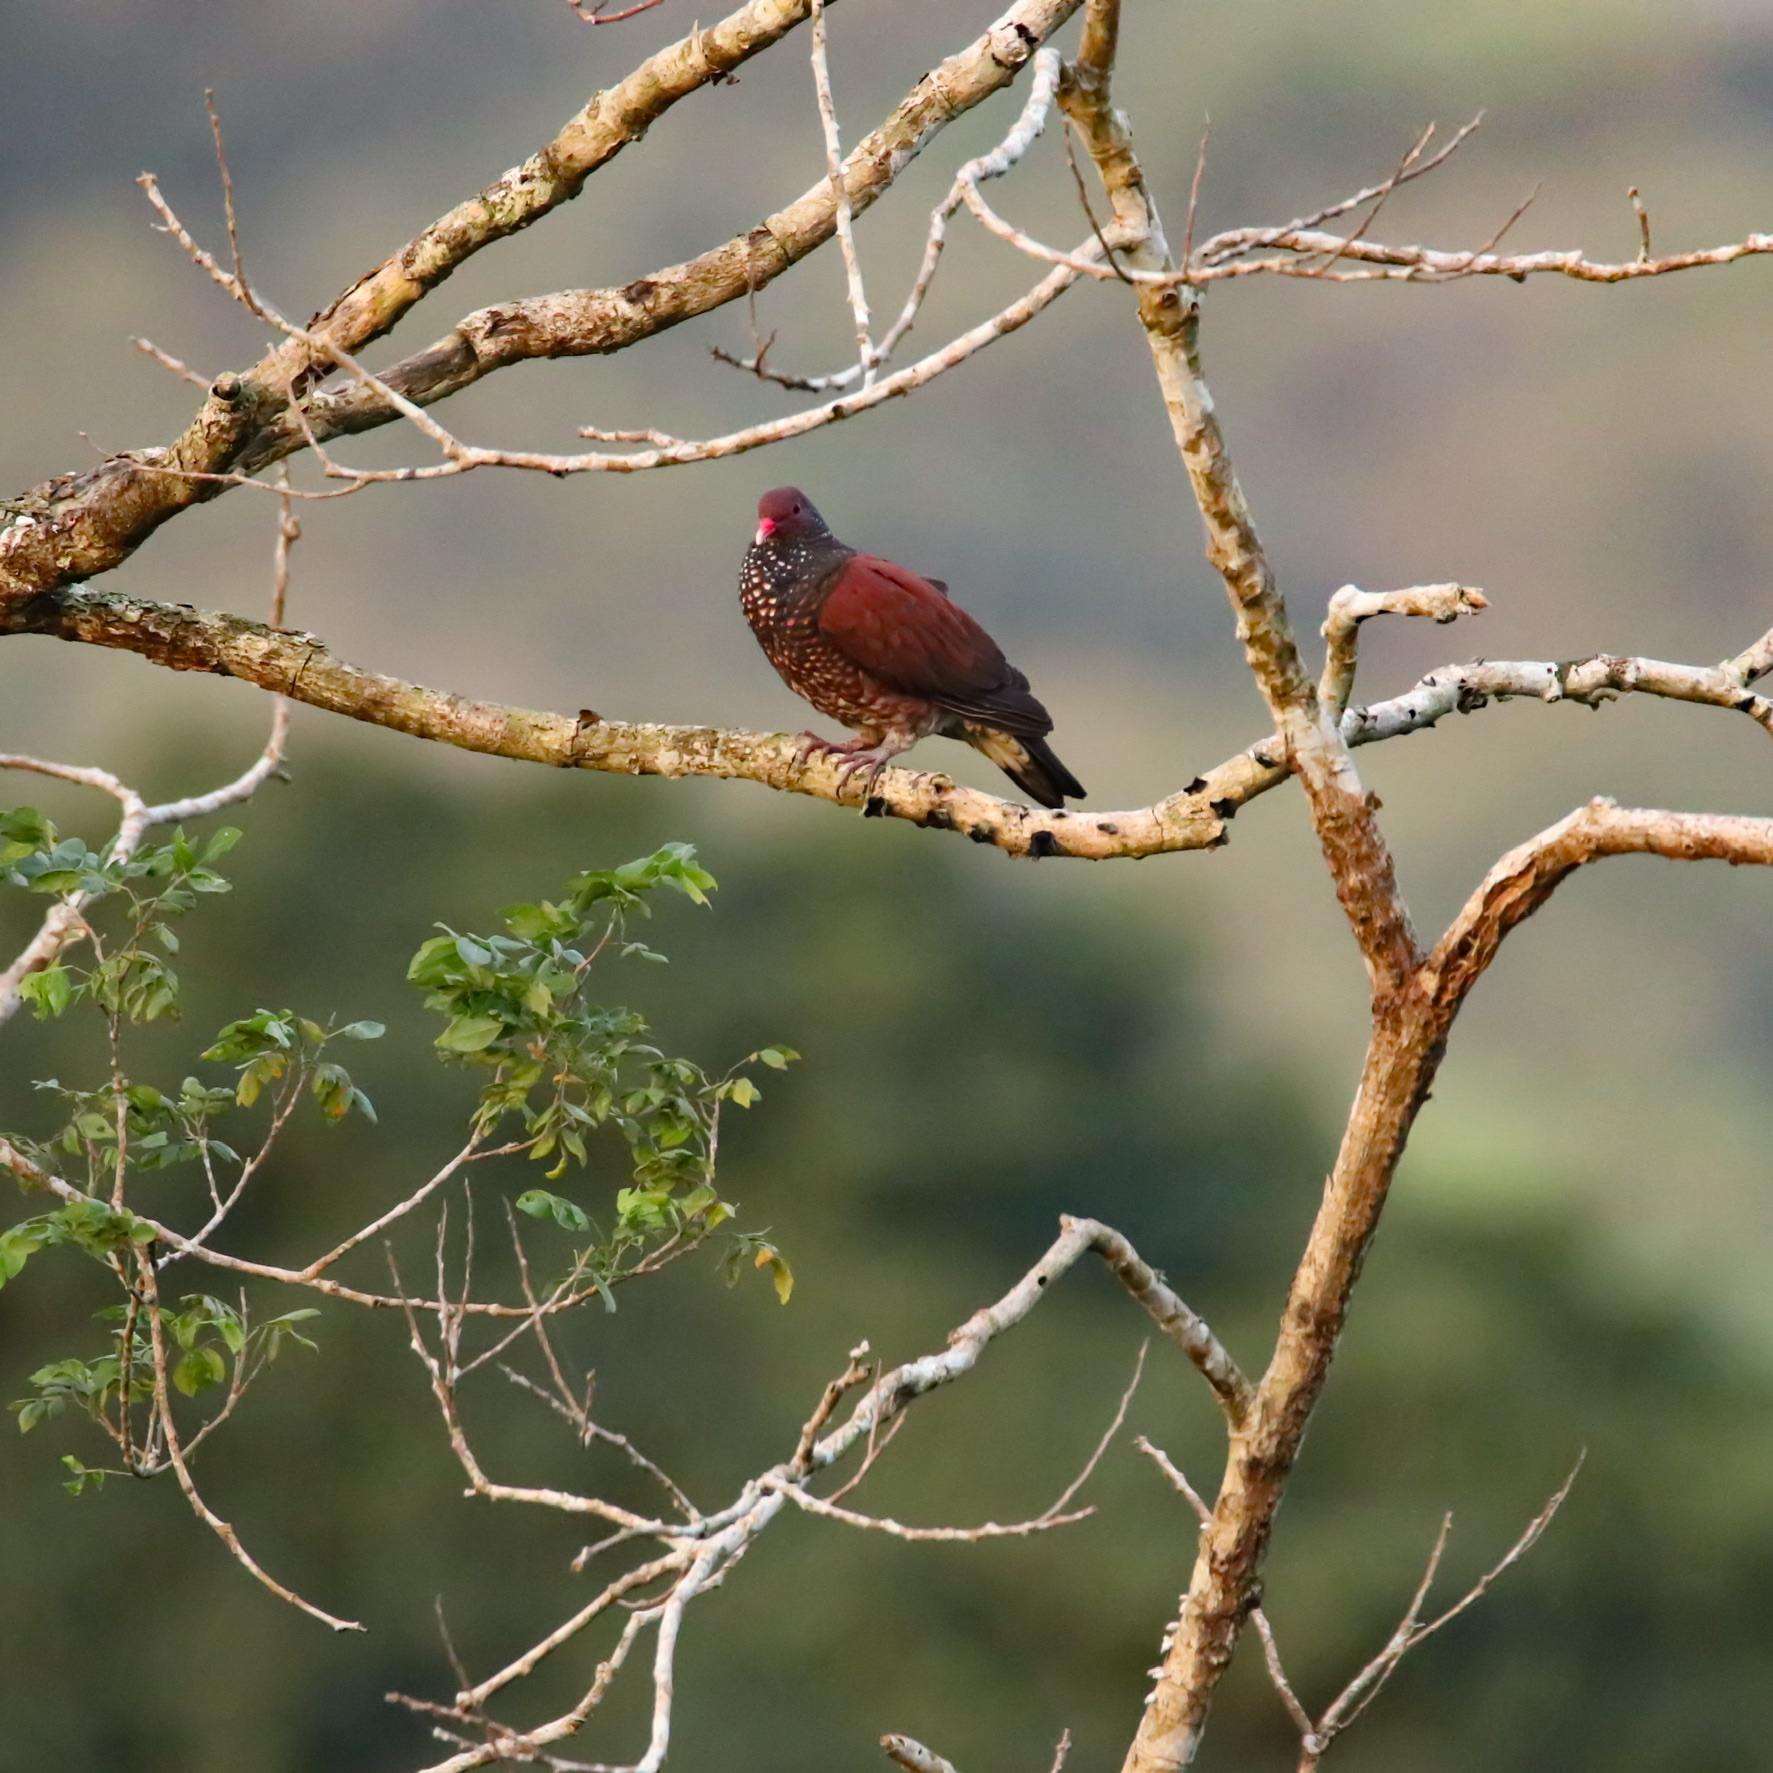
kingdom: Animalia
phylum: Chordata
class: Aves
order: Columbiformes
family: Columbidae
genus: Patagioenas
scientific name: Patagioenas speciosa
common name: Scaled pigeon
